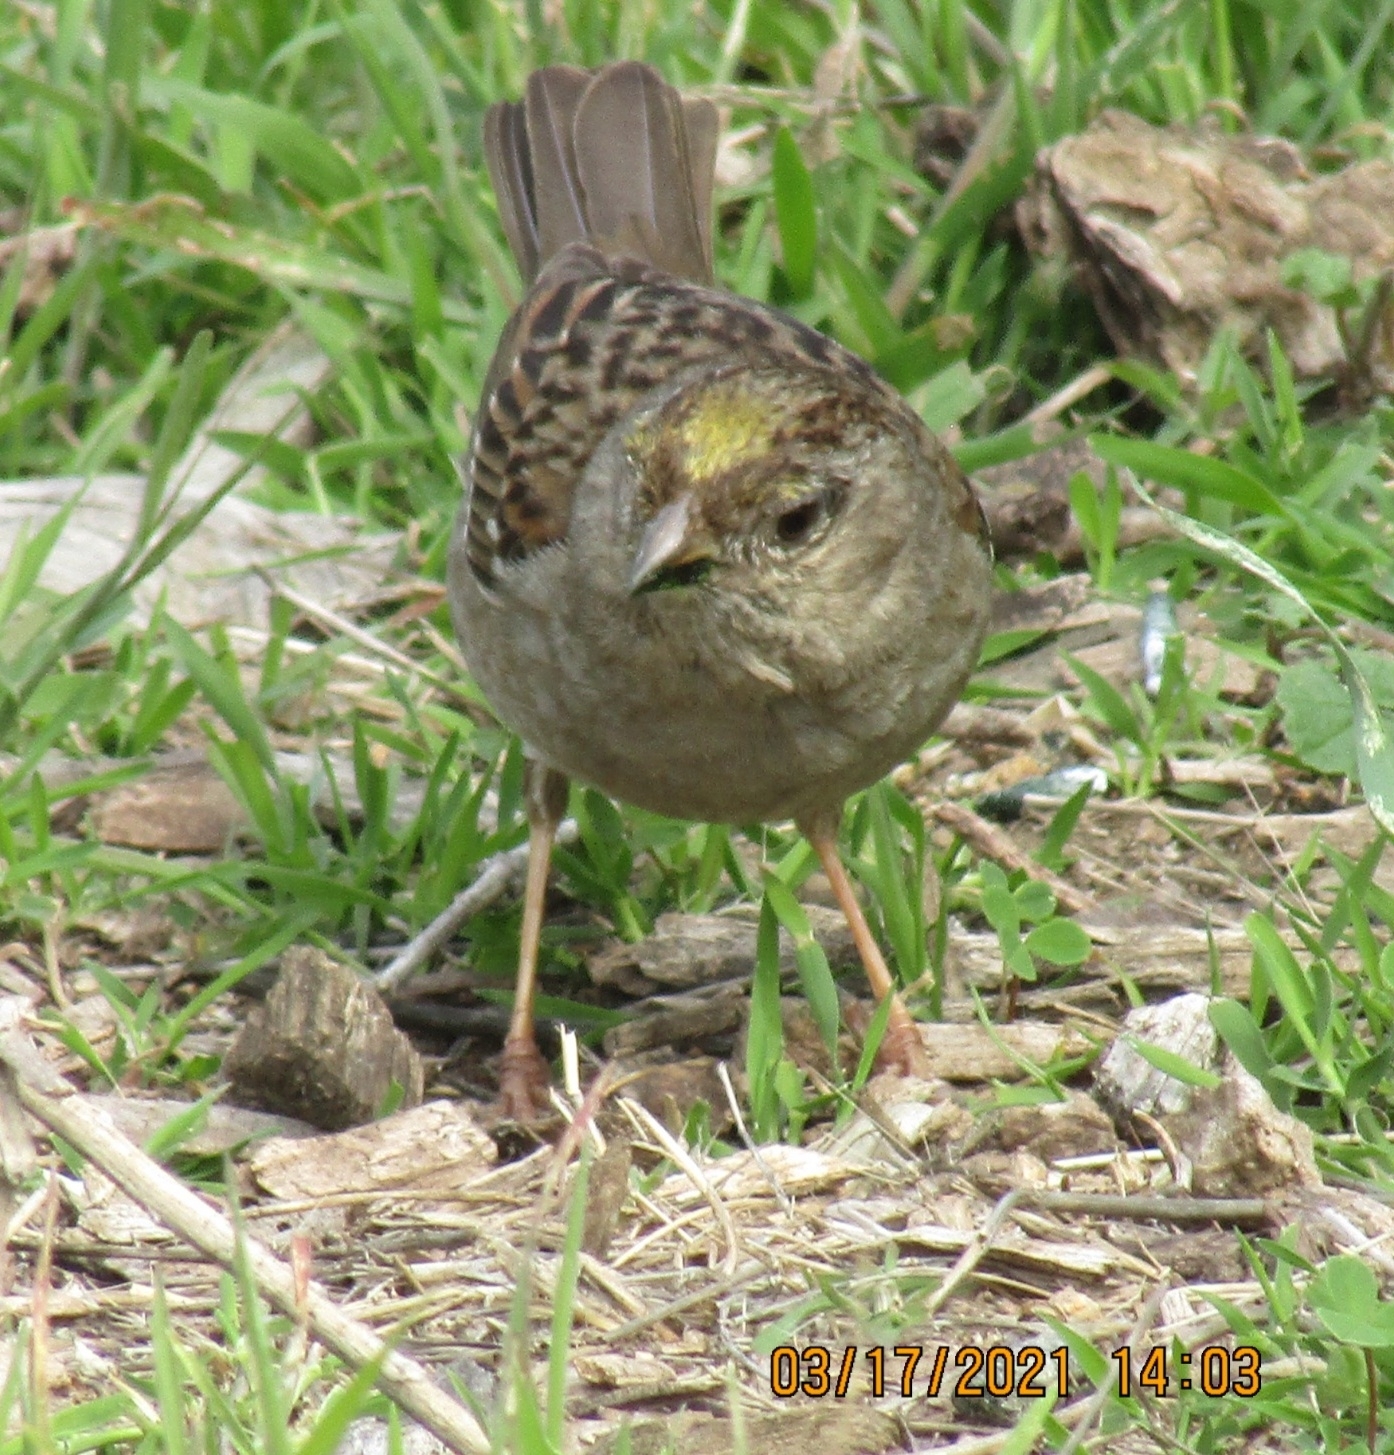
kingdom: Animalia
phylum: Chordata
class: Aves
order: Passeriformes
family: Passerellidae
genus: Zonotrichia
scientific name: Zonotrichia atricapilla
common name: Golden-crowned sparrow
